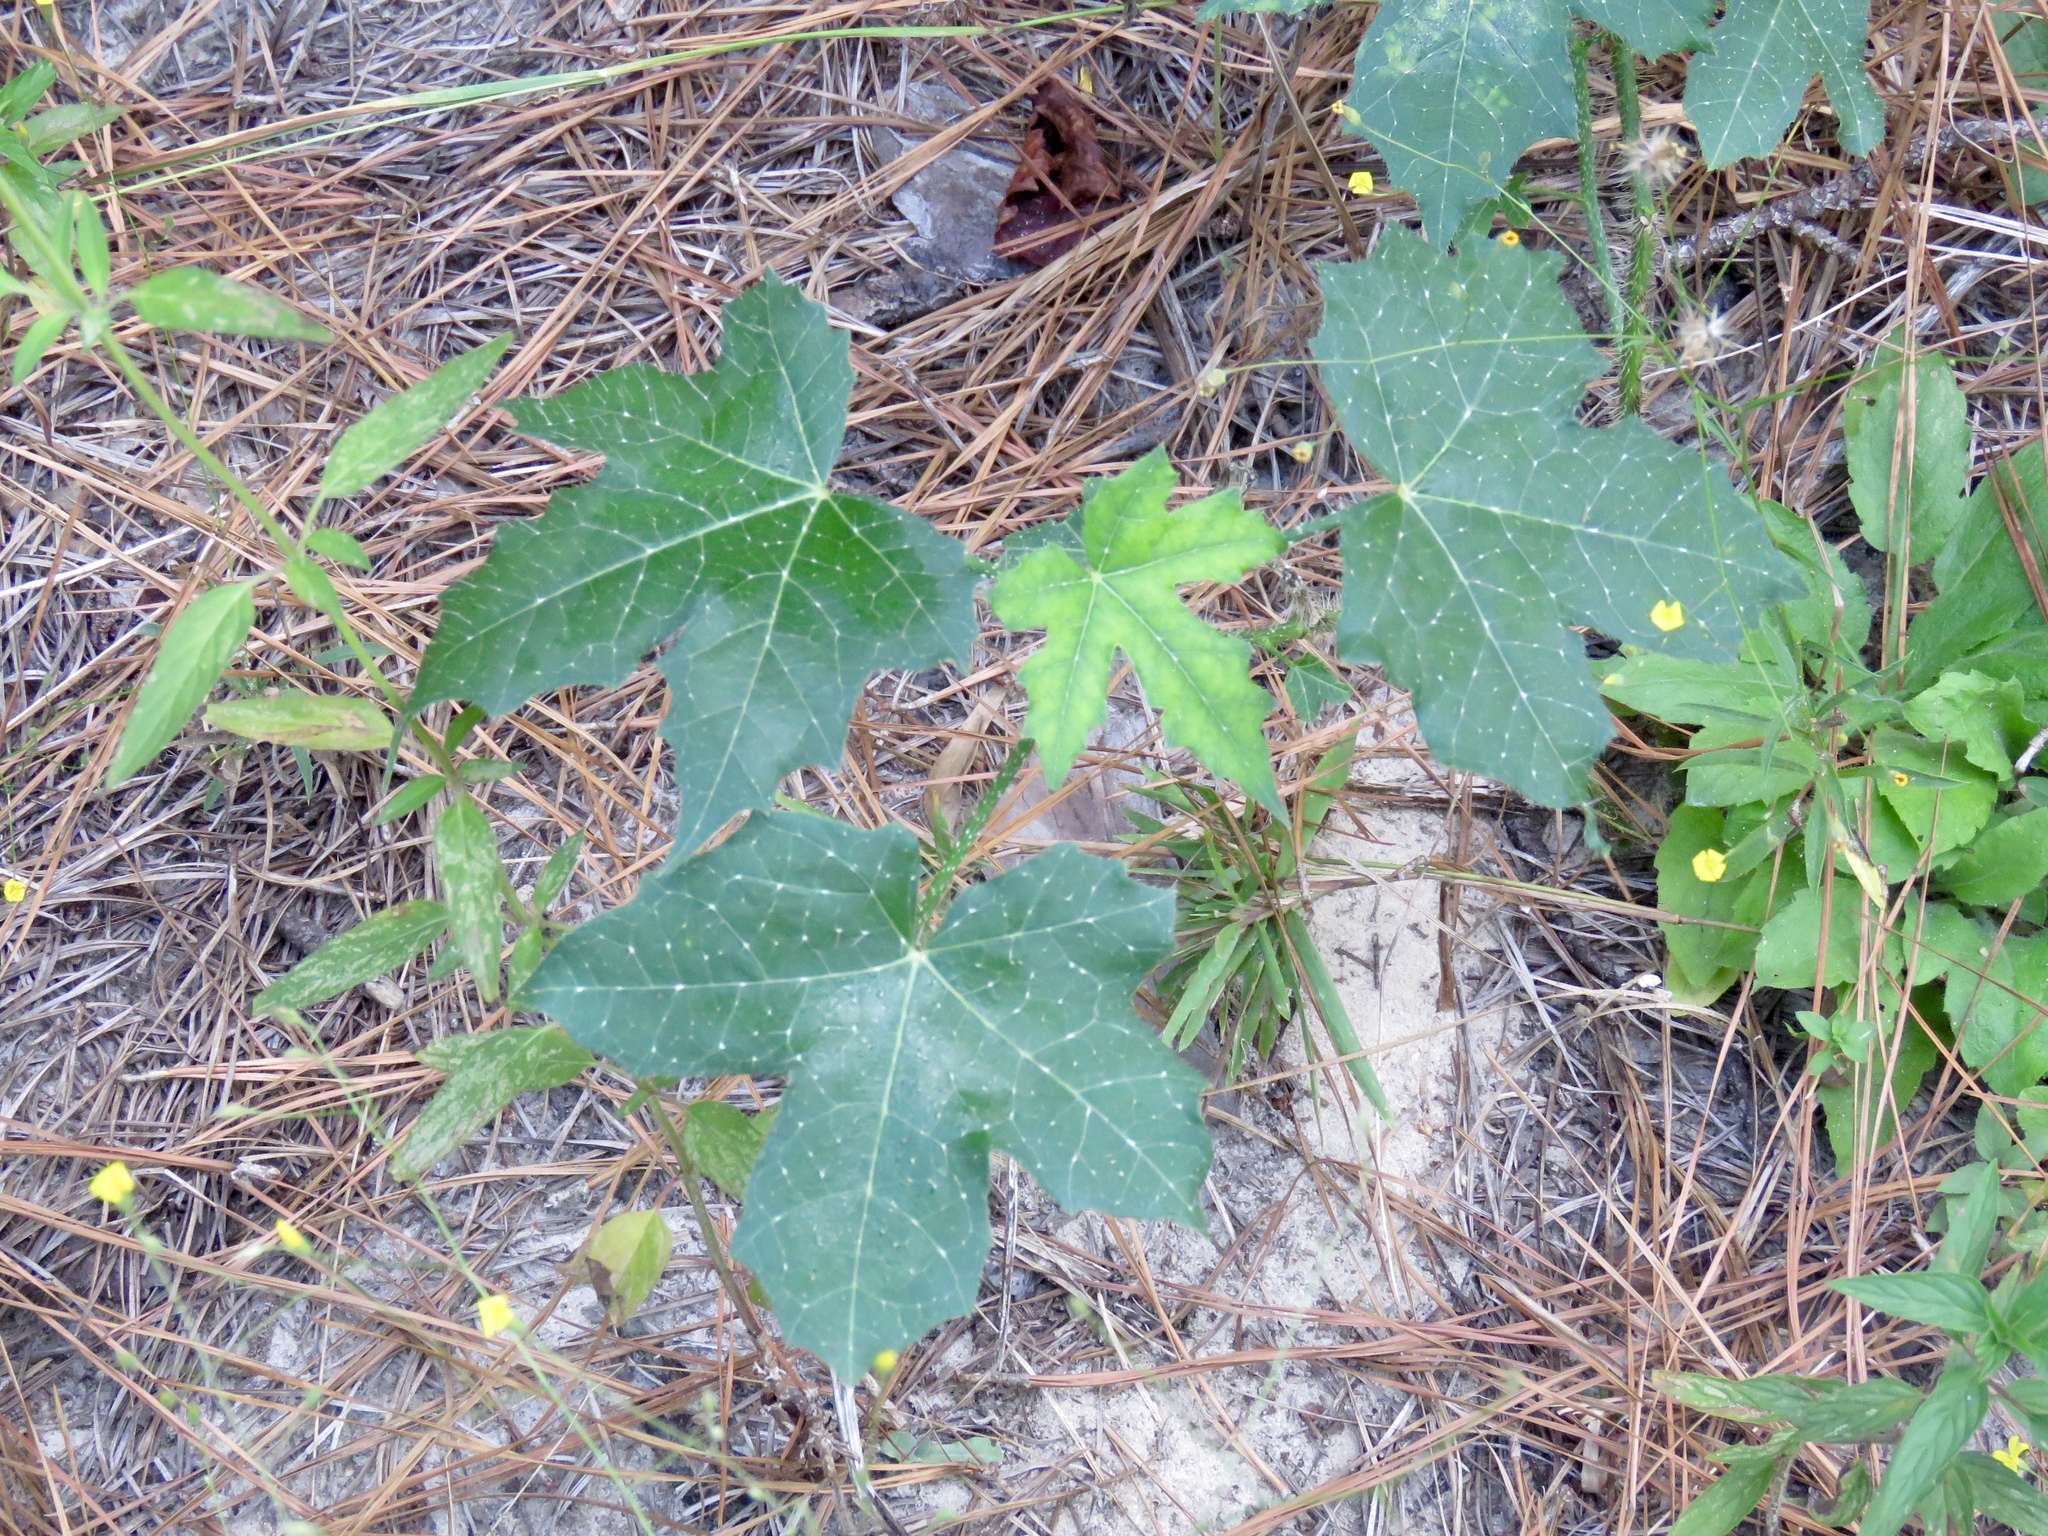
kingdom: Plantae
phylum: Tracheophyta
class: Magnoliopsida
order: Malpighiales
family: Euphorbiaceae
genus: Cnidoscolus
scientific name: Cnidoscolus texanus
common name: Texas bull-nettle
